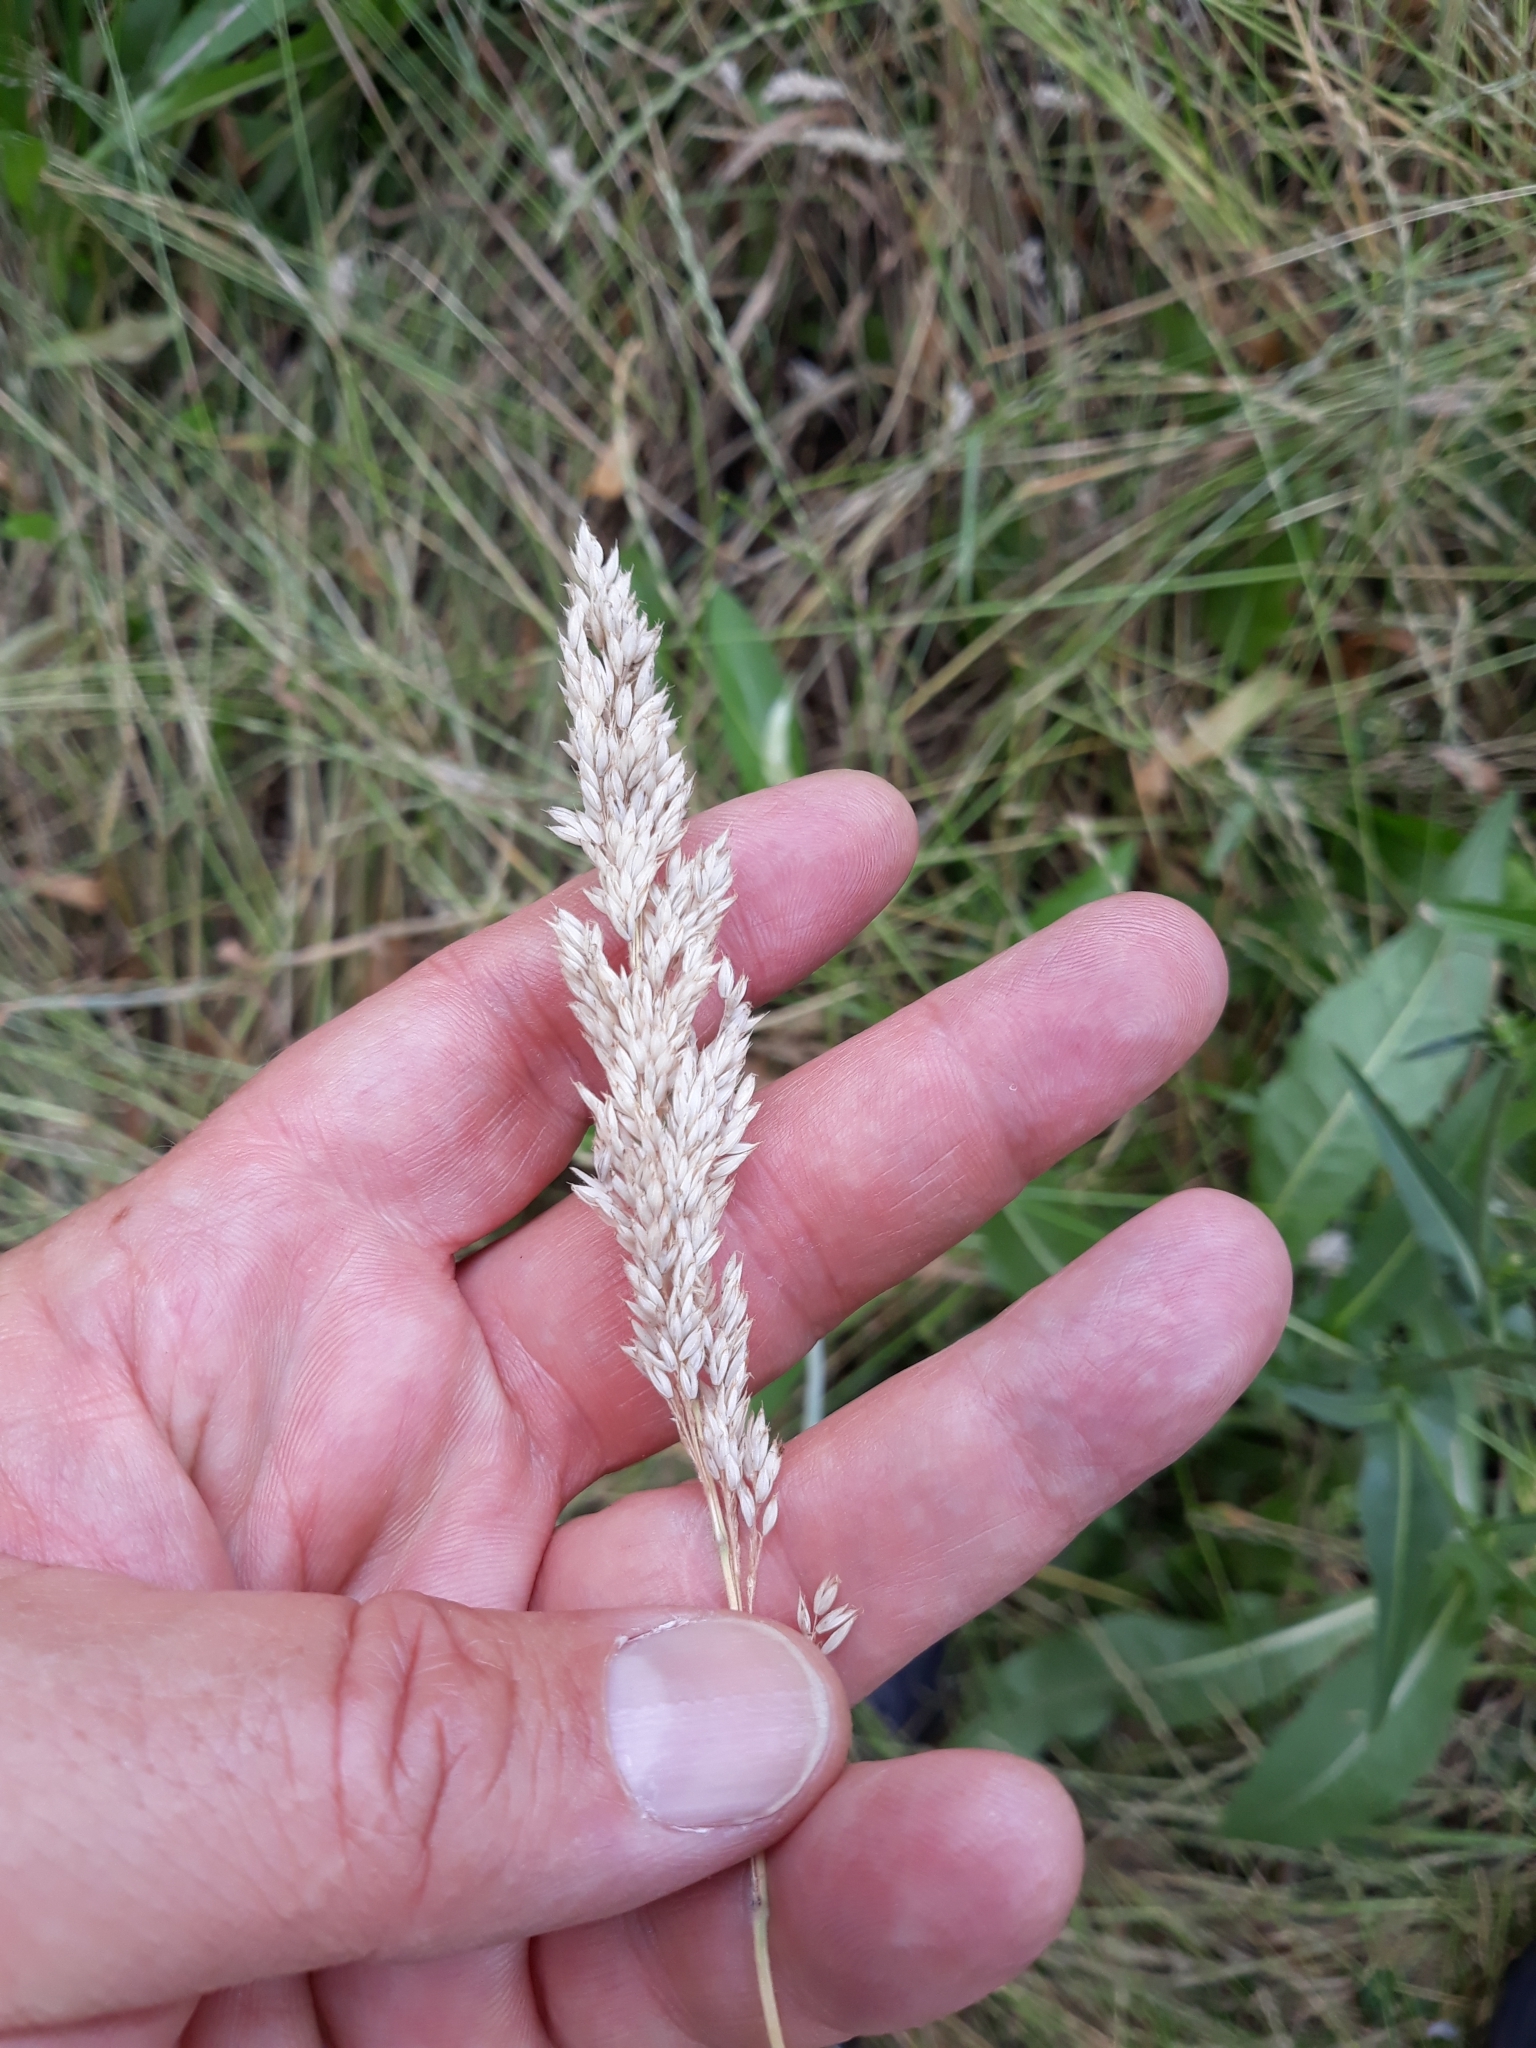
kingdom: Plantae
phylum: Tracheophyta
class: Liliopsida
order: Poales
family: Poaceae
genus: Holcus
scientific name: Holcus lanatus
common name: Yorkshire-fog
